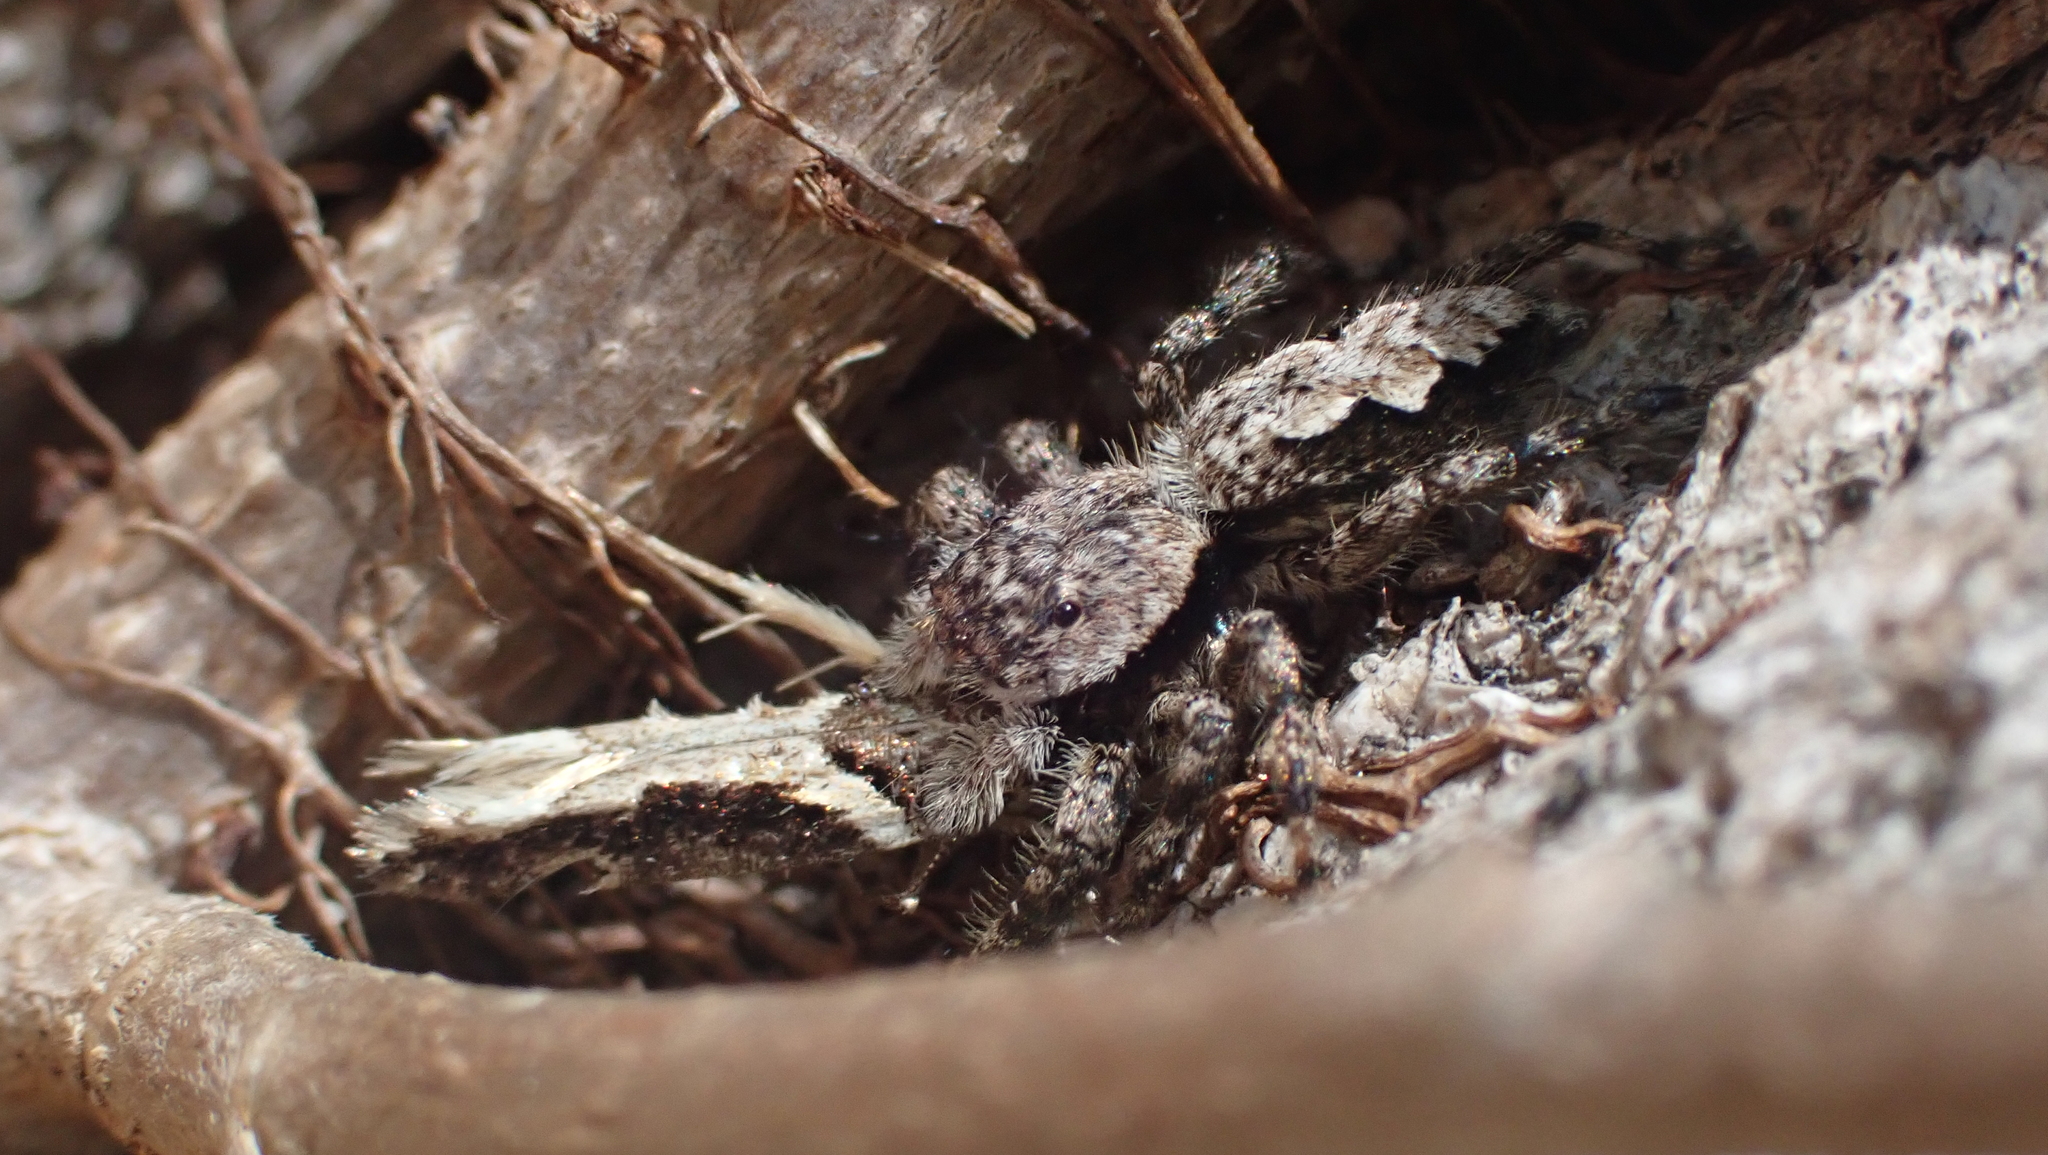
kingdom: Animalia
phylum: Arthropoda
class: Arachnida
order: Araneae
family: Salticidae
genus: Platycryptus
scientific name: Platycryptus undatus
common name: Tan jumping spider
